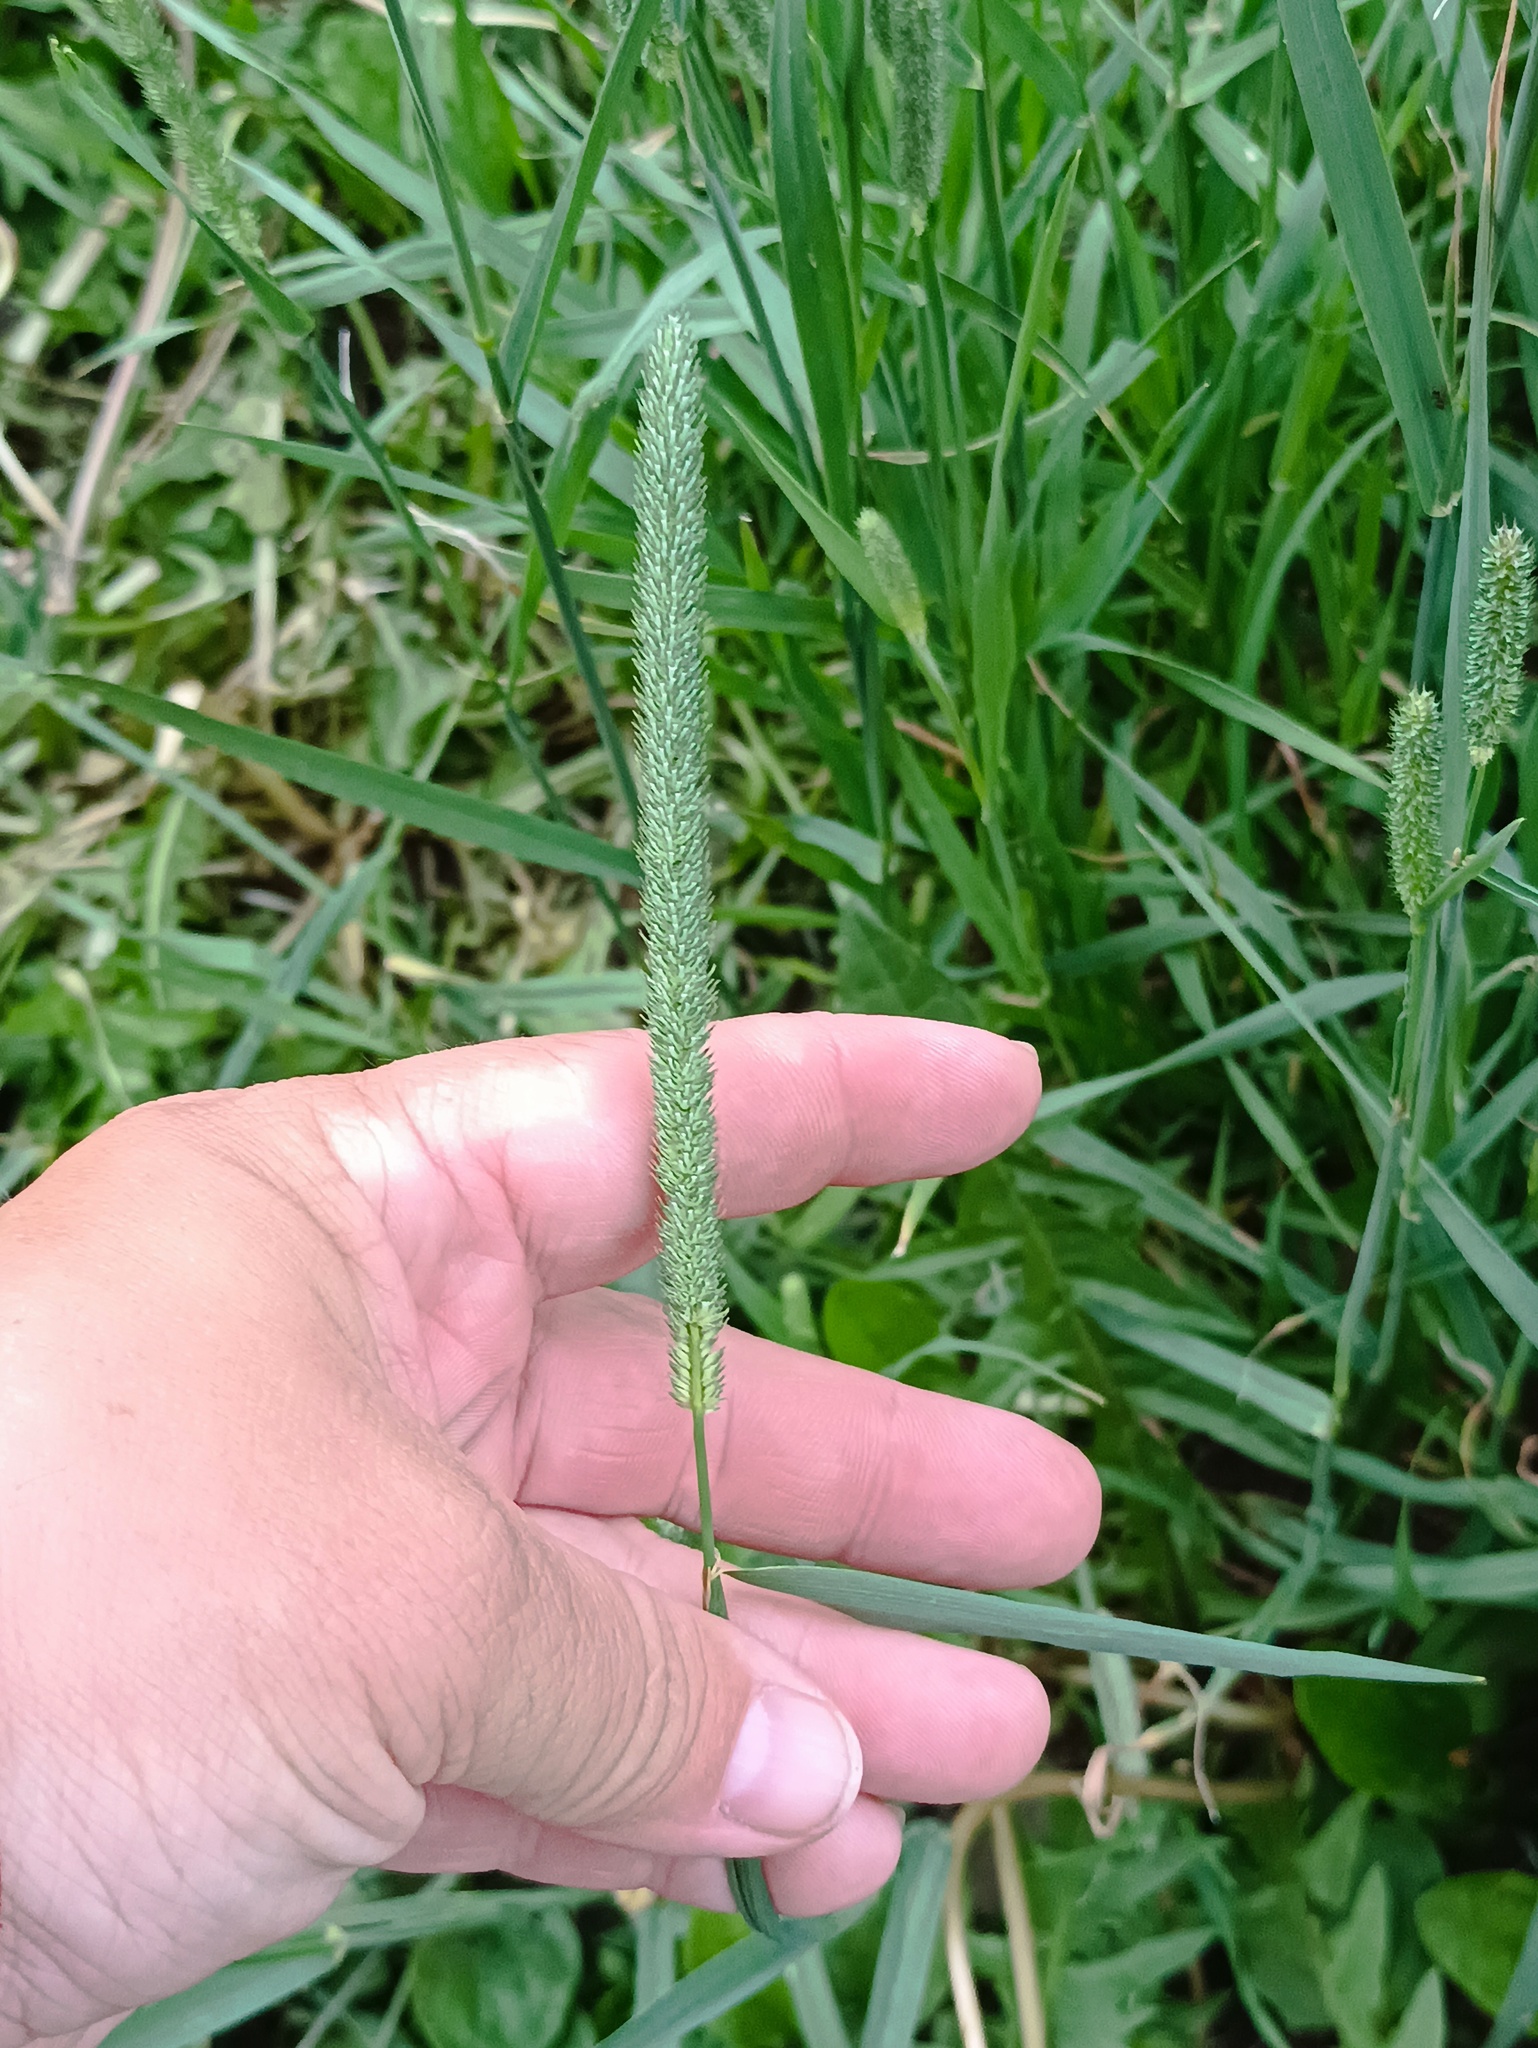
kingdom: Plantae
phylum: Tracheophyta
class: Liliopsida
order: Poales
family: Poaceae
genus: Phleum
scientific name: Phleum pratense
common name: Timothy grass
